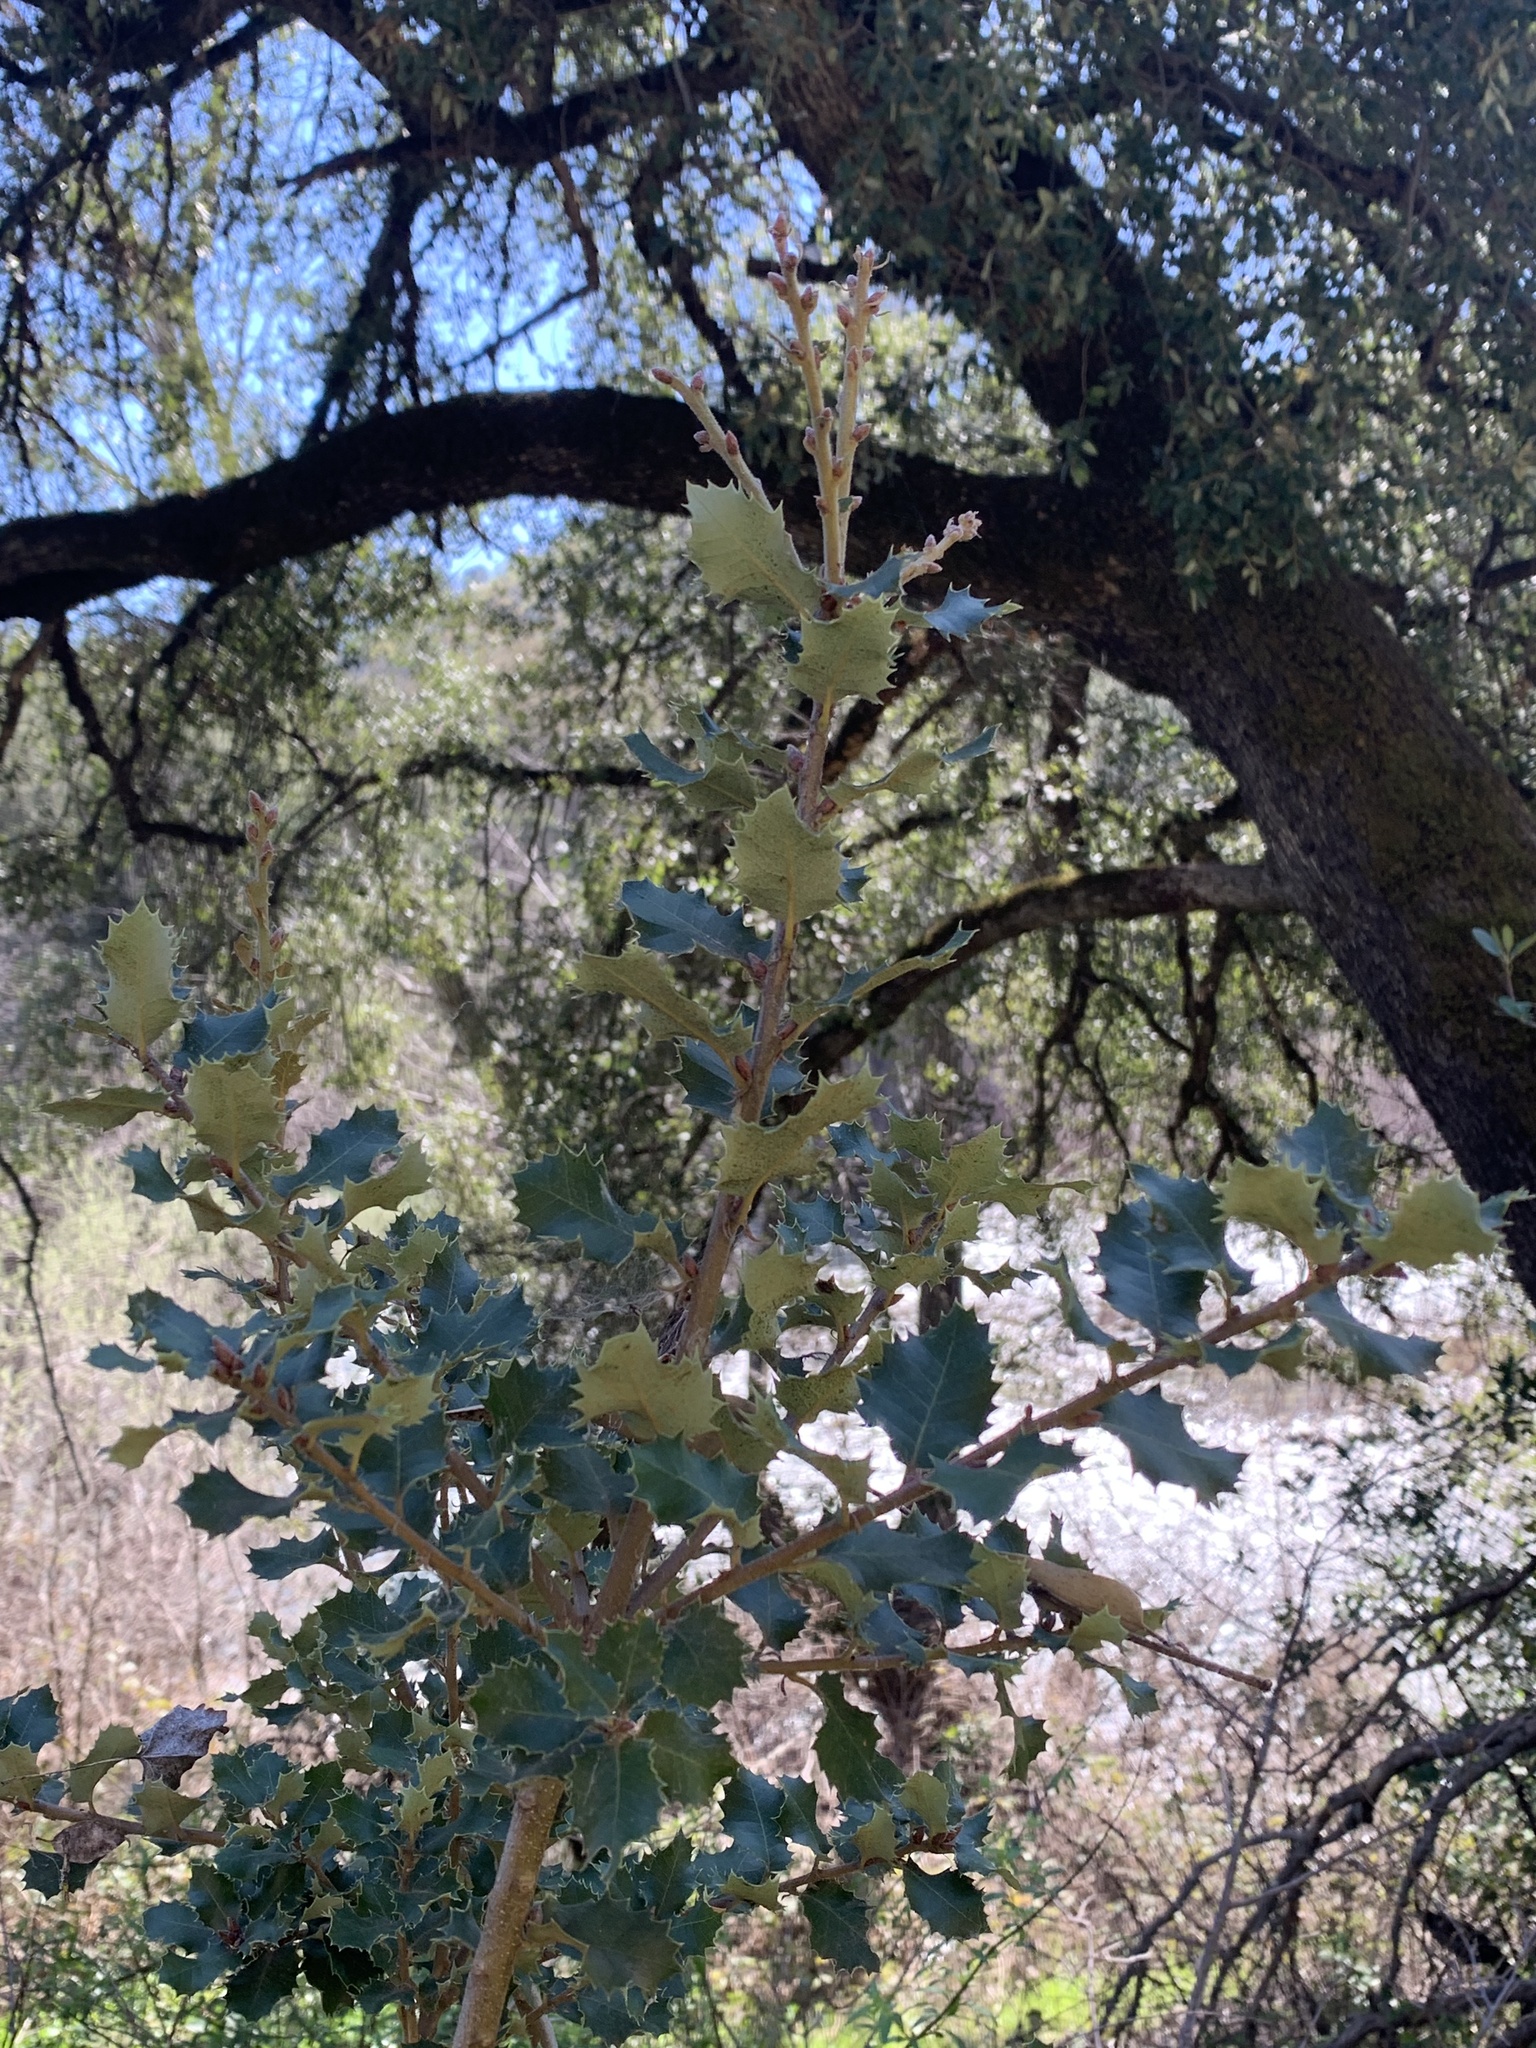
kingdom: Plantae
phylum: Tracheophyta
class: Magnoliopsida
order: Fagales
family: Fagaceae
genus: Quercus
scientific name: Quercus chrysolepis
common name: Canyon live oak
